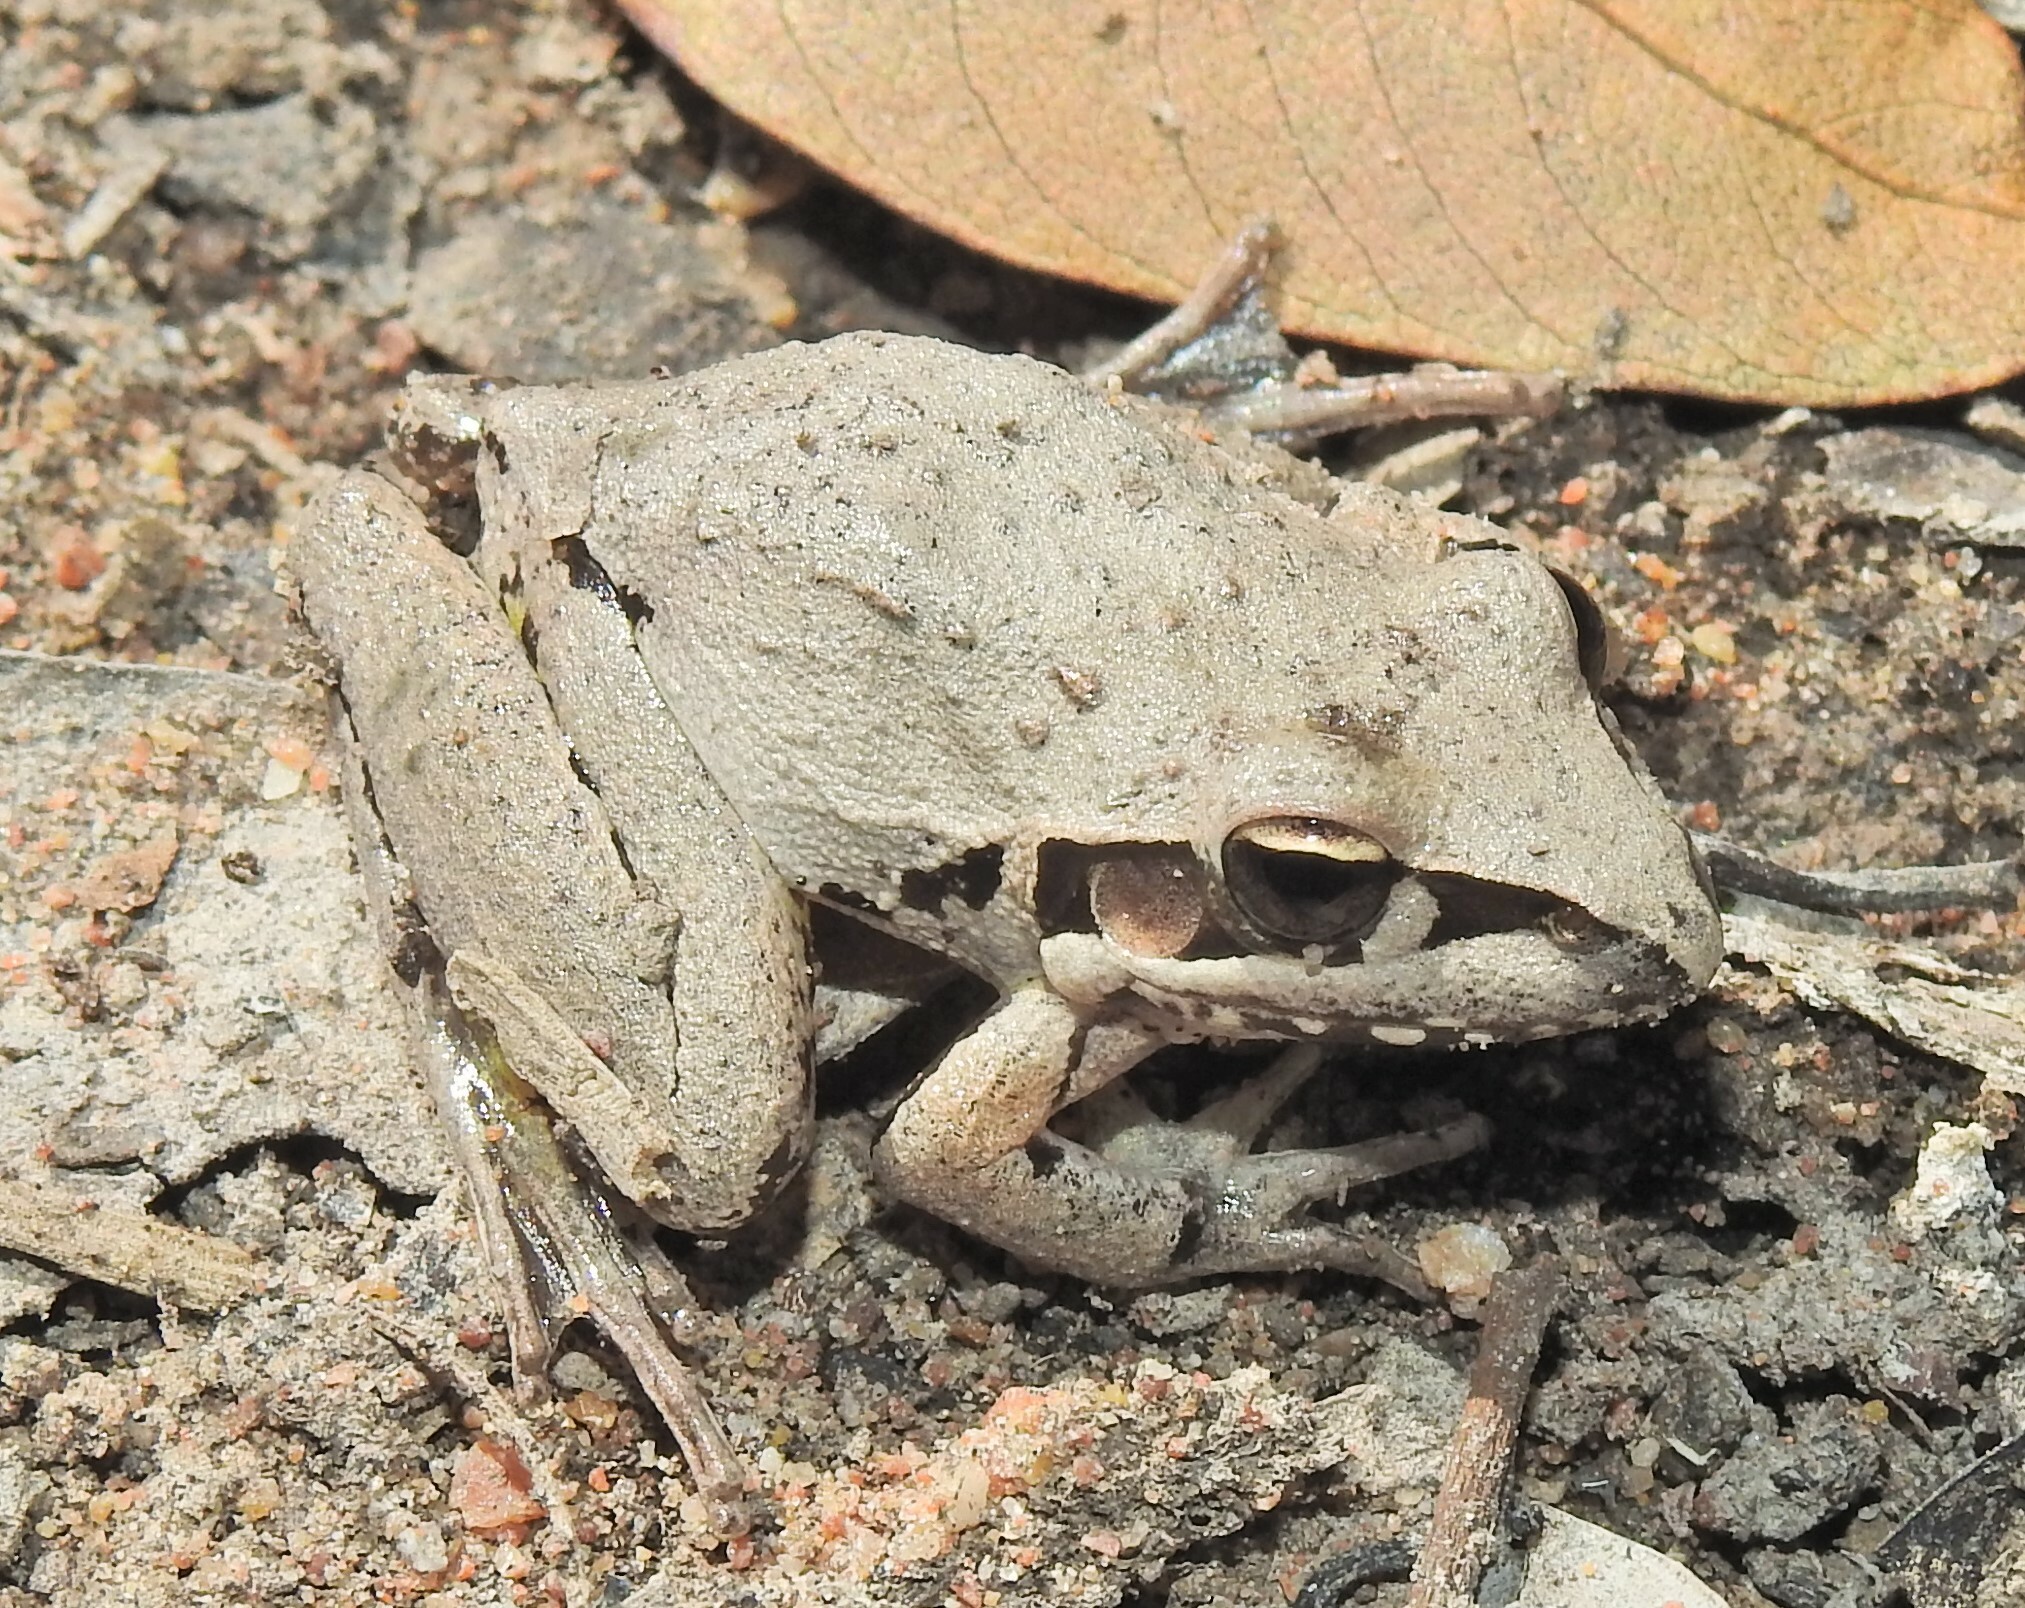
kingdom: Animalia
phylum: Chordata
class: Amphibia
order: Anura
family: Pelodryadidae
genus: Litoria
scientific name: Litoria latopalmata
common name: Broad-palmed rocket frog
